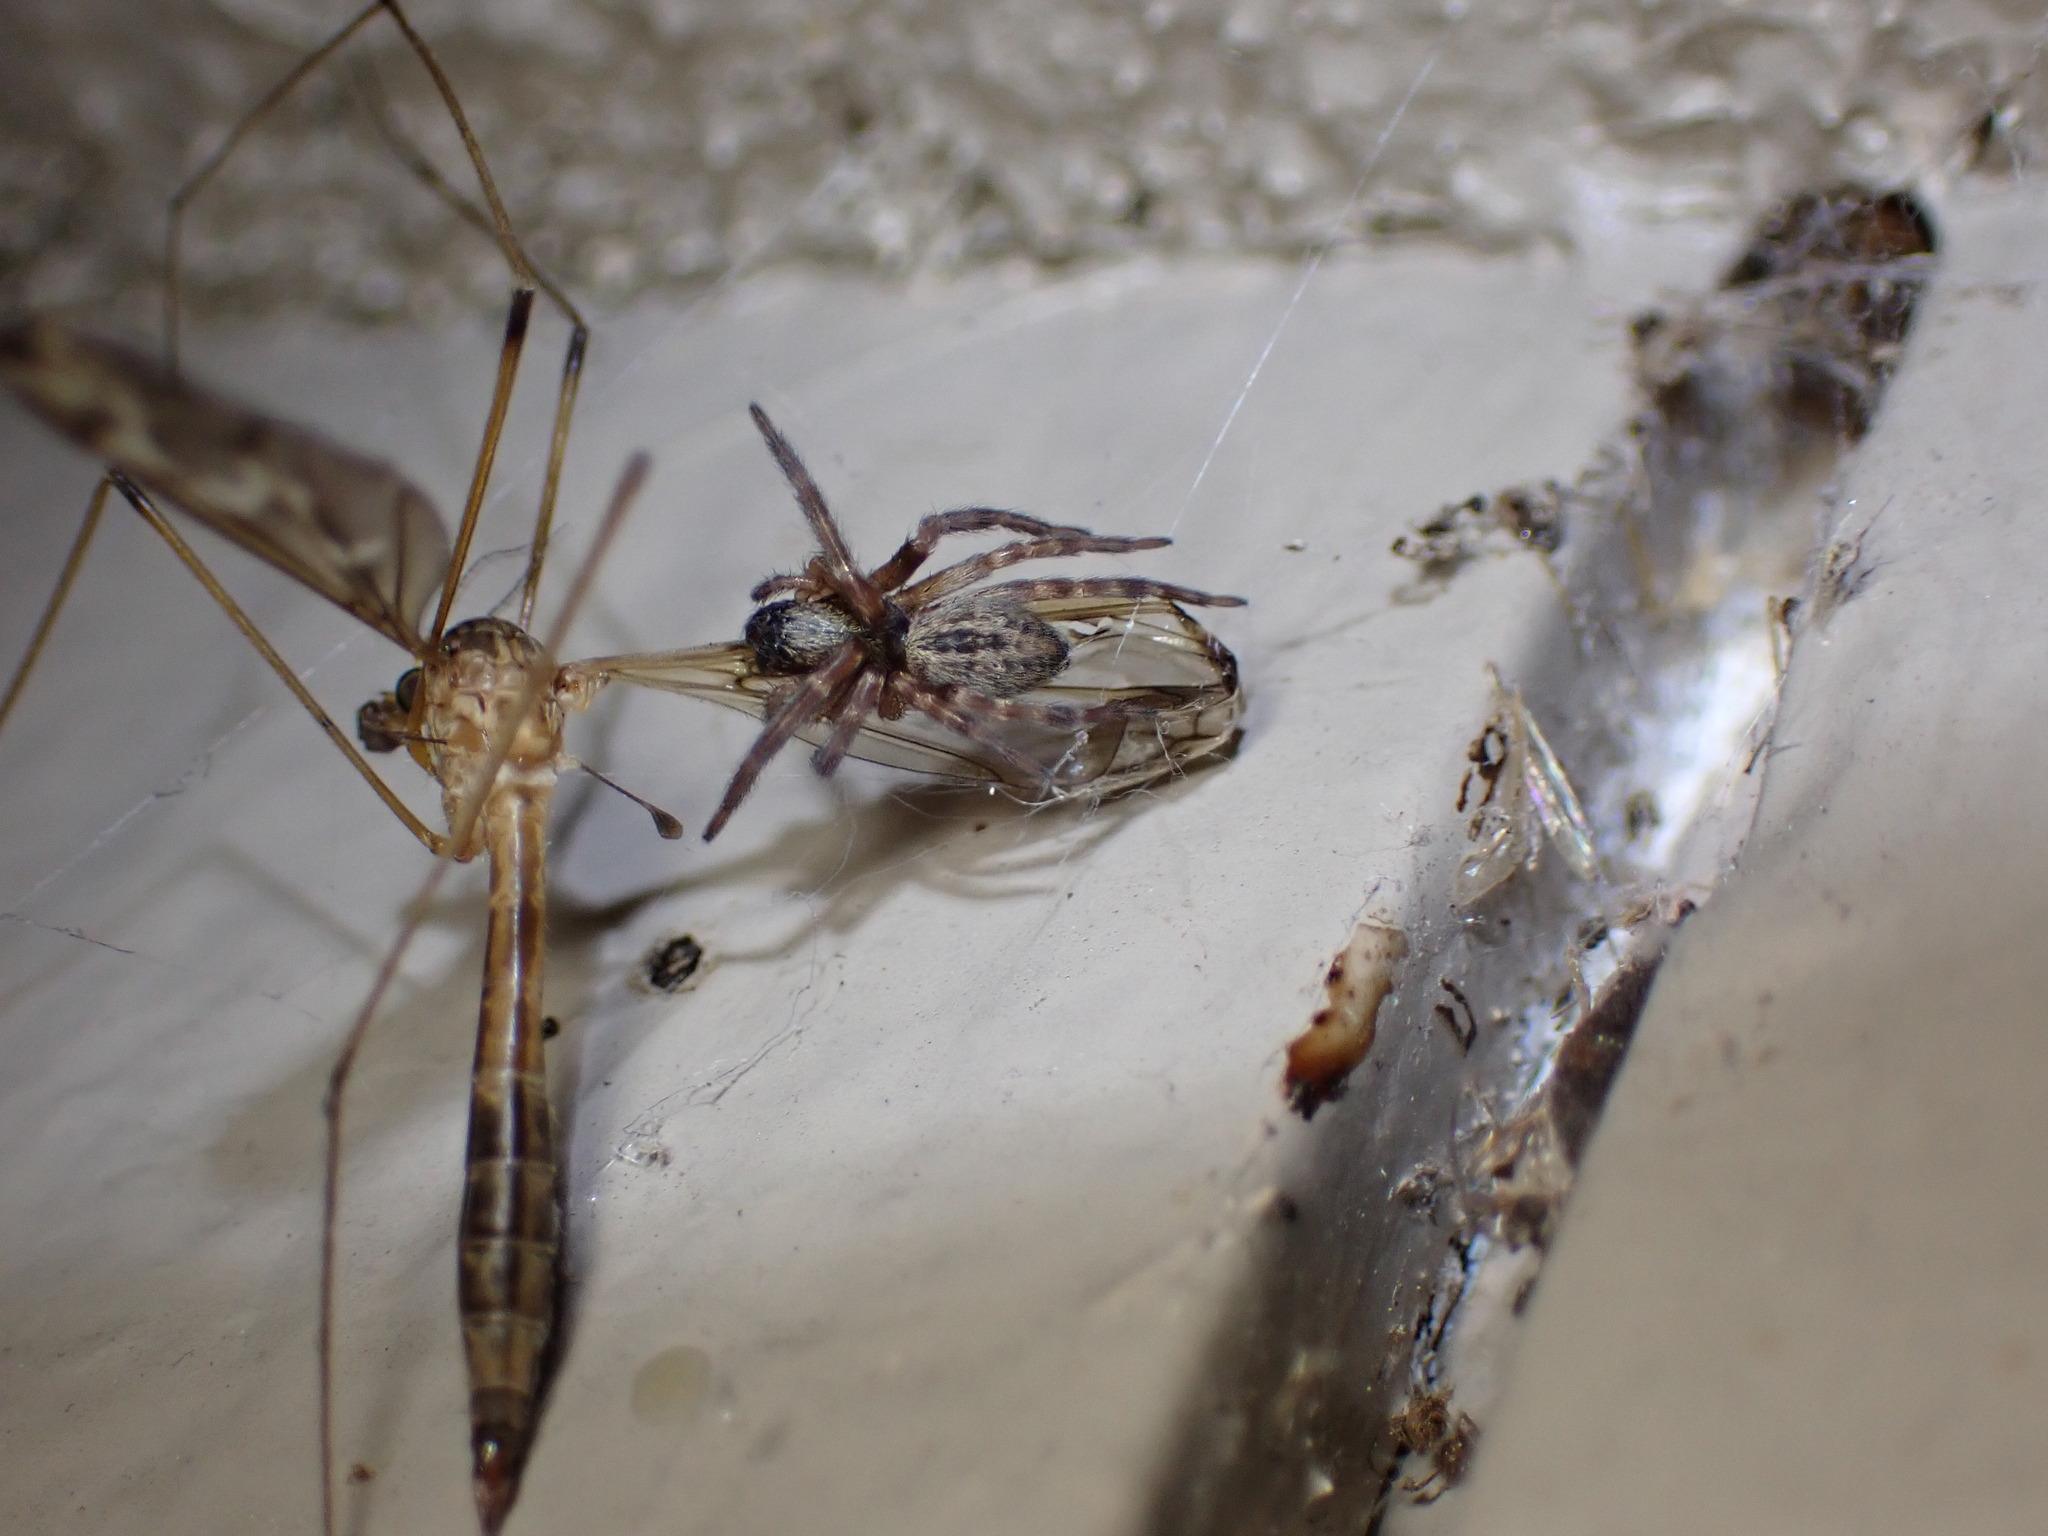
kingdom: Animalia
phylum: Arthropoda
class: Arachnida
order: Araneae
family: Desidae
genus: Badumna
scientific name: Badumna longinqua
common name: Gray house spider
